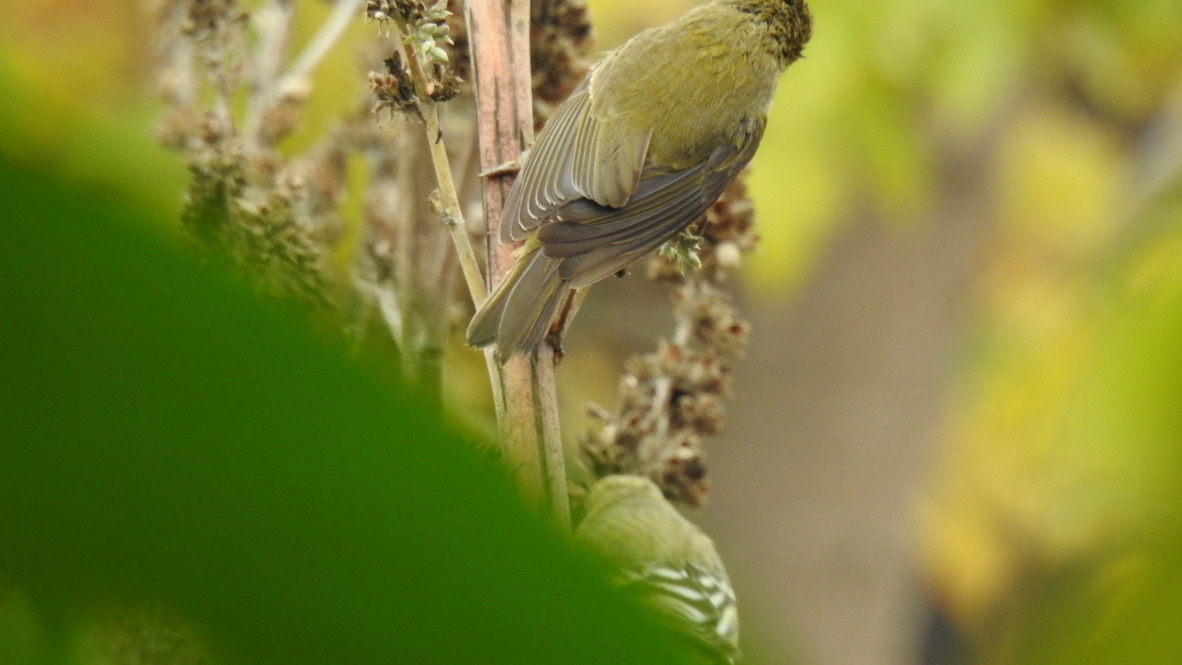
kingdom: Animalia
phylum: Chordata
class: Aves
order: Passeriformes
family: Parulidae
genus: Leiothlypis
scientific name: Leiothlypis celata
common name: Orange-crowned warbler
